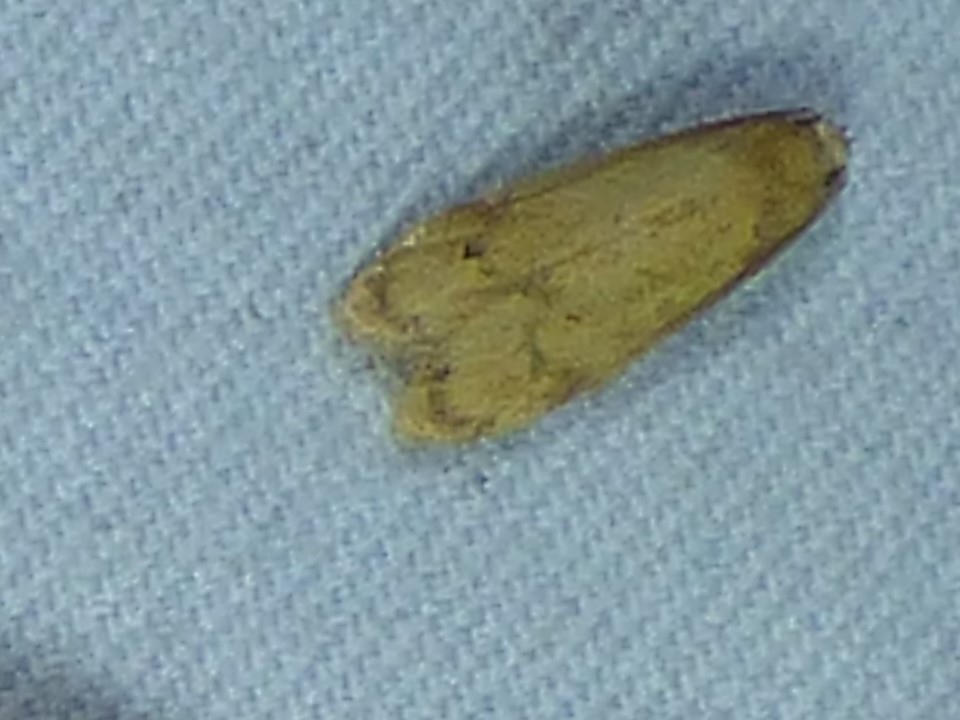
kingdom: Animalia
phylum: Arthropoda
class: Insecta
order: Lepidoptera
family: Autostichidae
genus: Gerdana
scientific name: Gerdana caritella
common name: Gerdana moth
